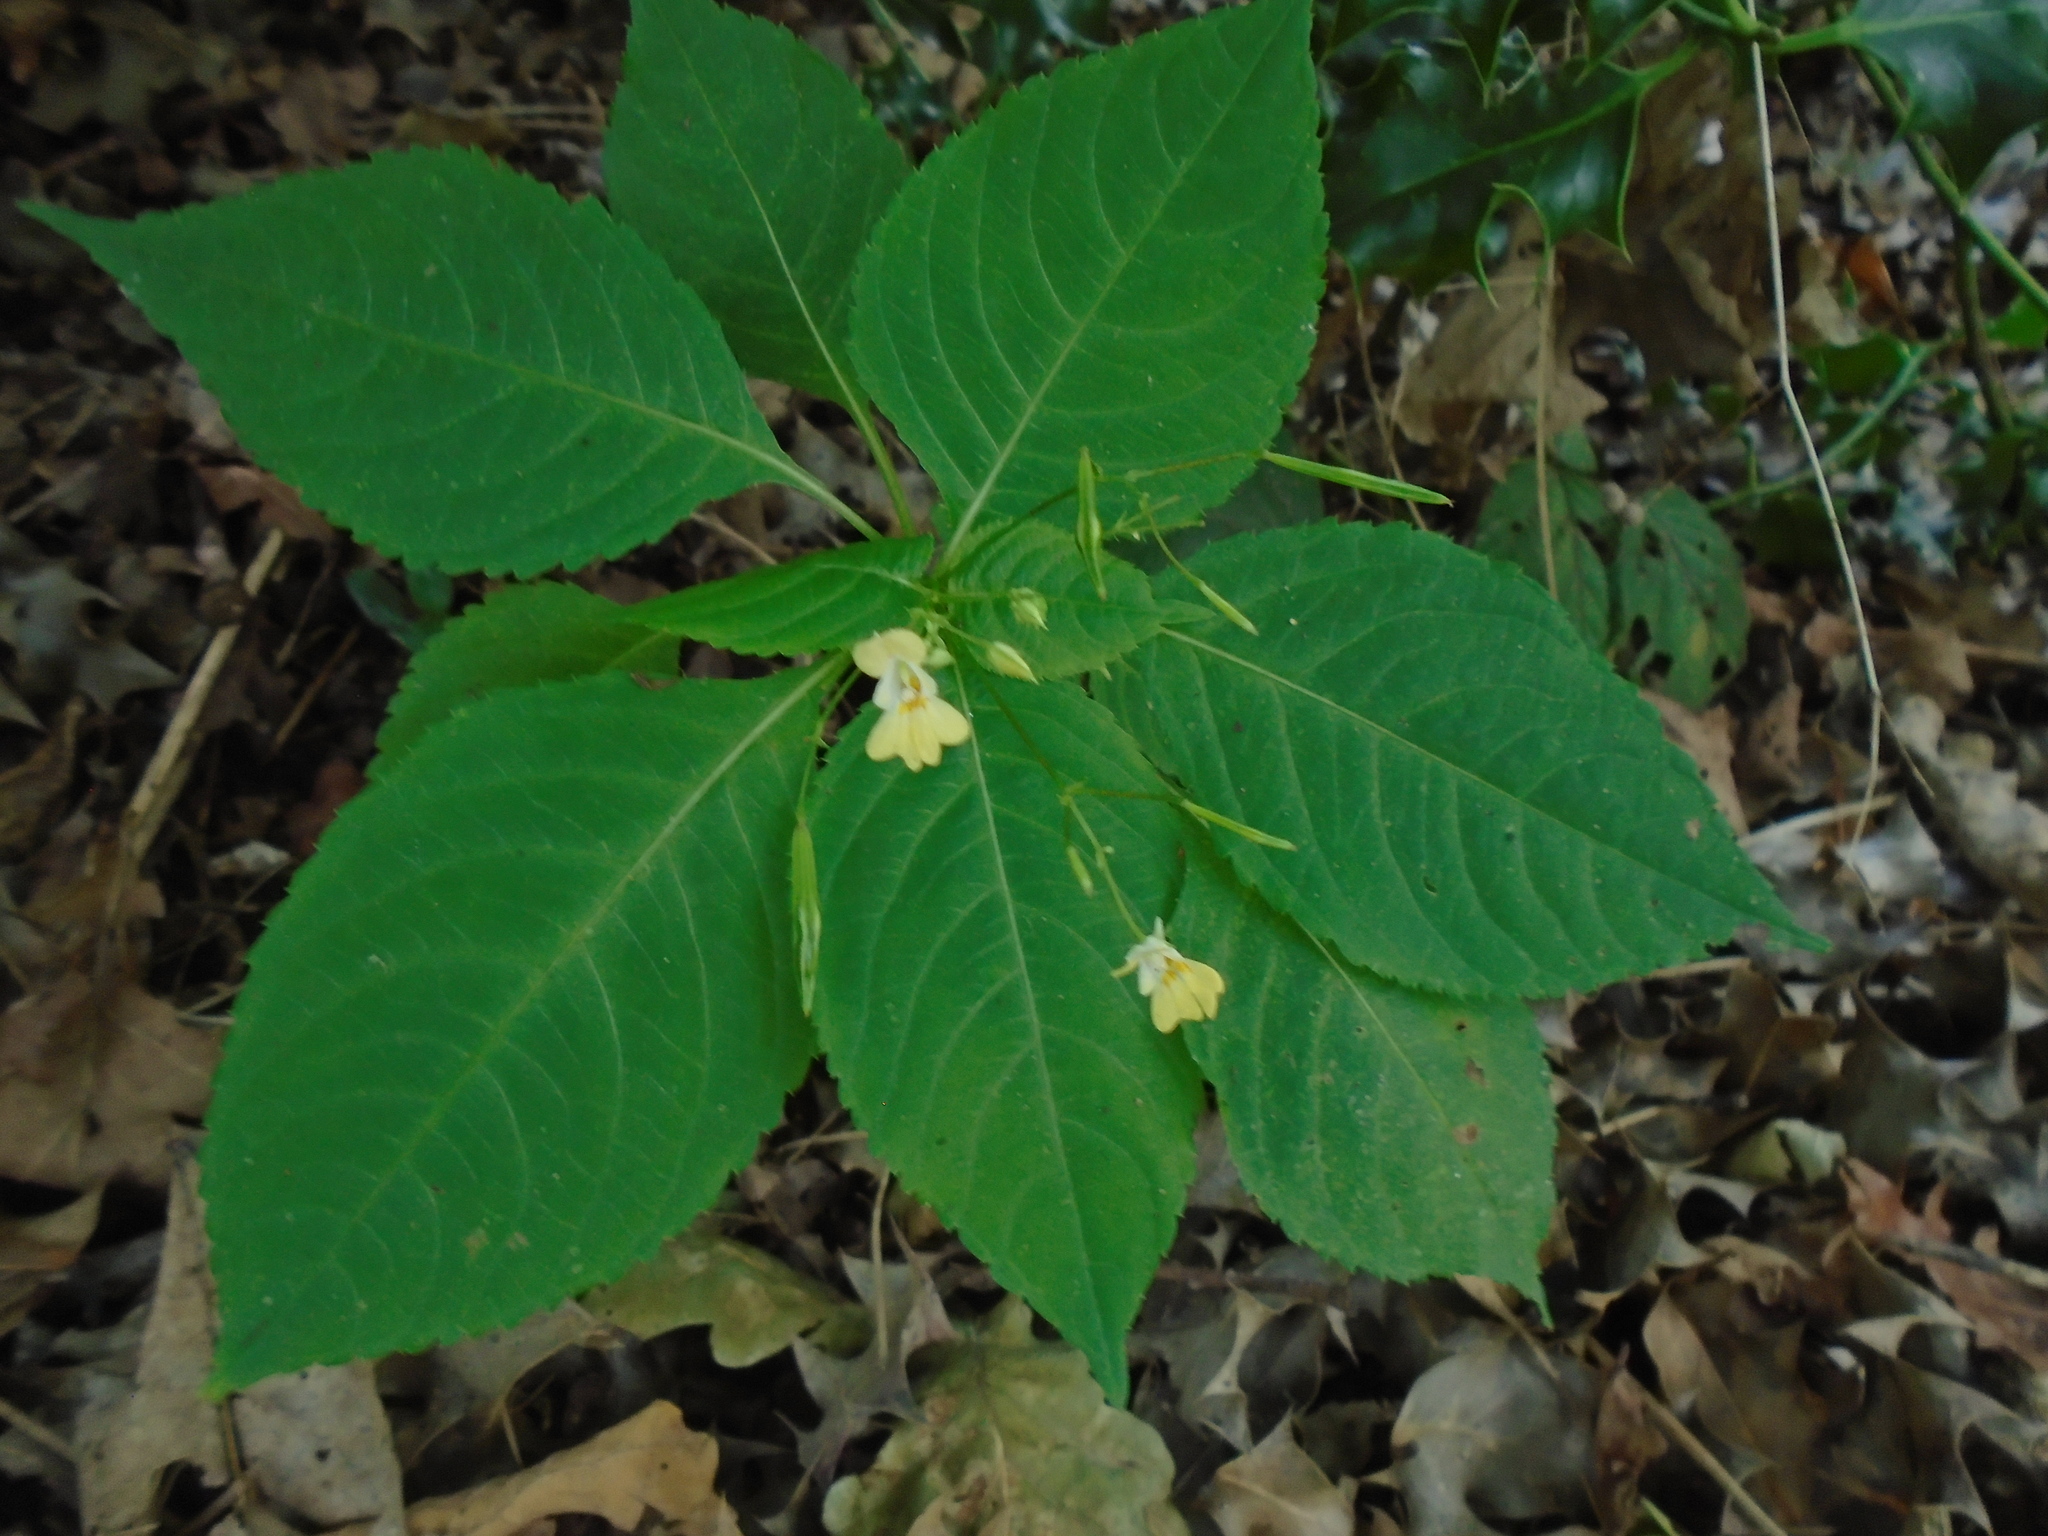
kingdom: Plantae
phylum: Tracheophyta
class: Magnoliopsida
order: Ericales
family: Balsaminaceae
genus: Impatiens
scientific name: Impatiens parviflora
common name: Small balsam
